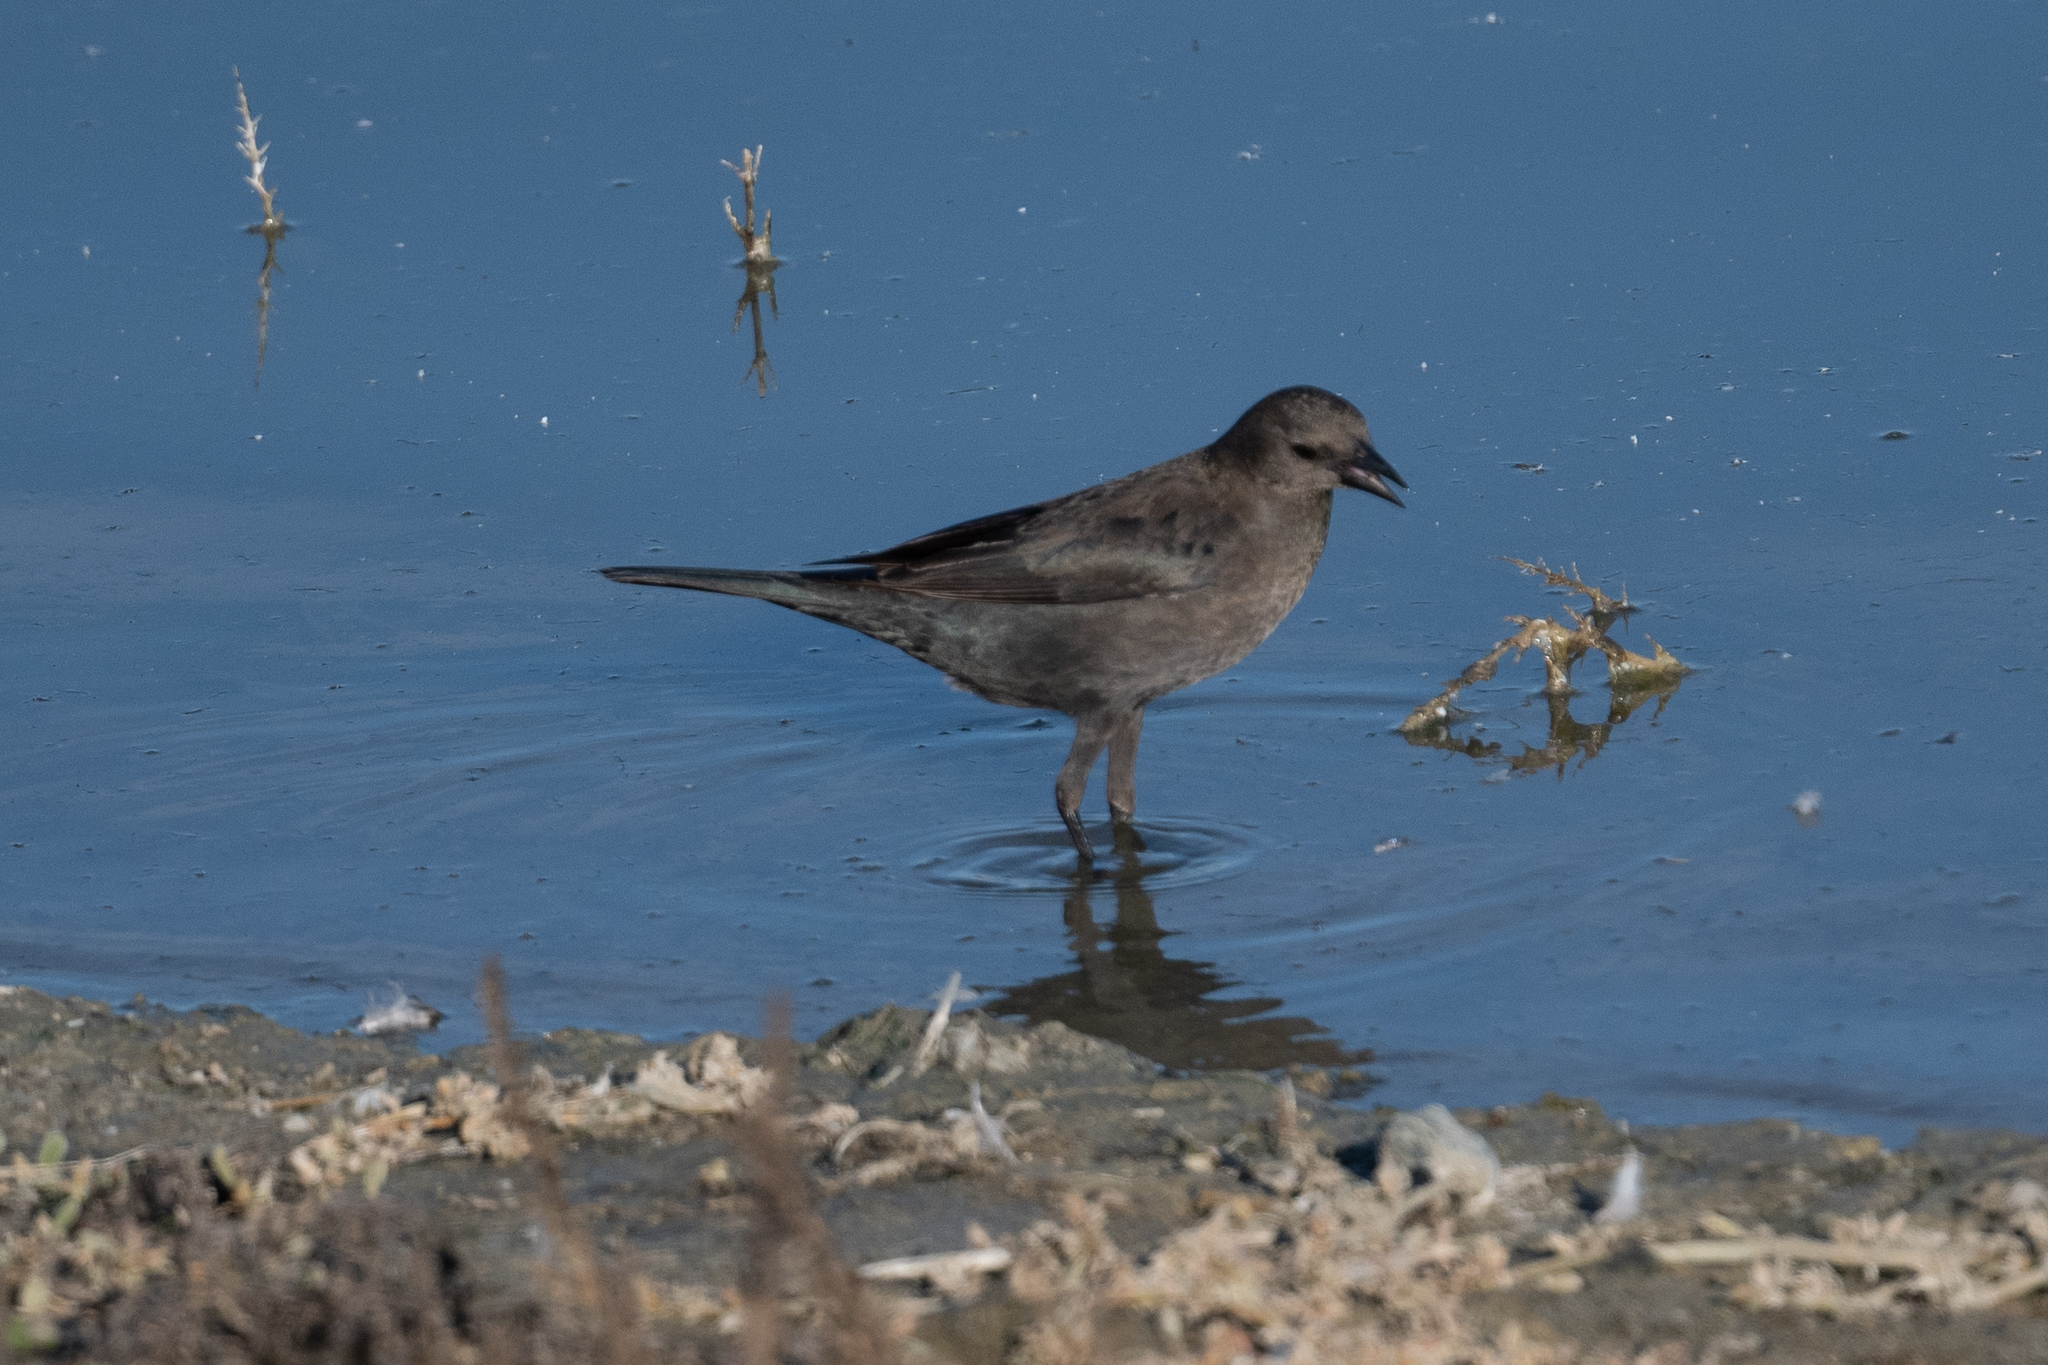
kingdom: Animalia
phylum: Chordata
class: Aves
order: Passeriformes
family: Icteridae
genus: Euphagus
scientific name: Euphagus cyanocephalus
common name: Brewer's blackbird
